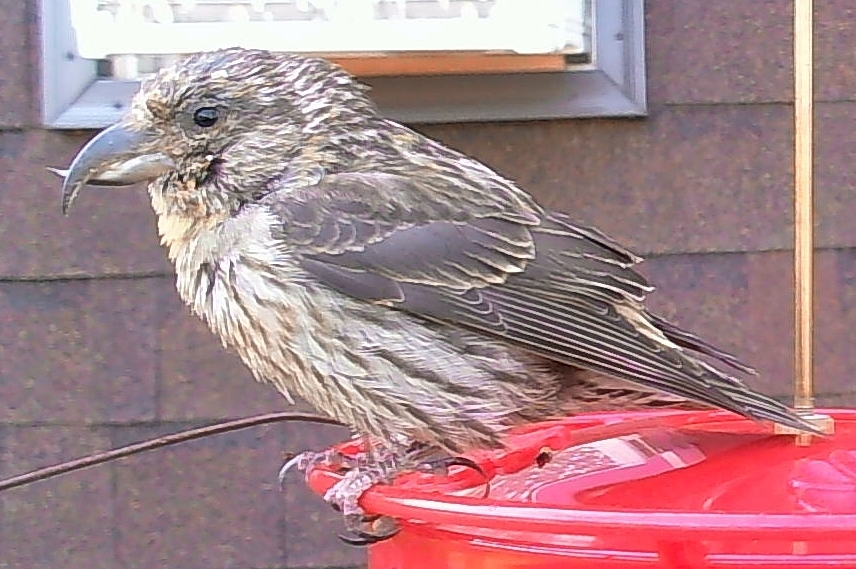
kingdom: Animalia
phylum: Chordata
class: Aves
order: Passeriformes
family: Fringillidae
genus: Loxia
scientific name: Loxia curvirostra
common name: Red crossbill
